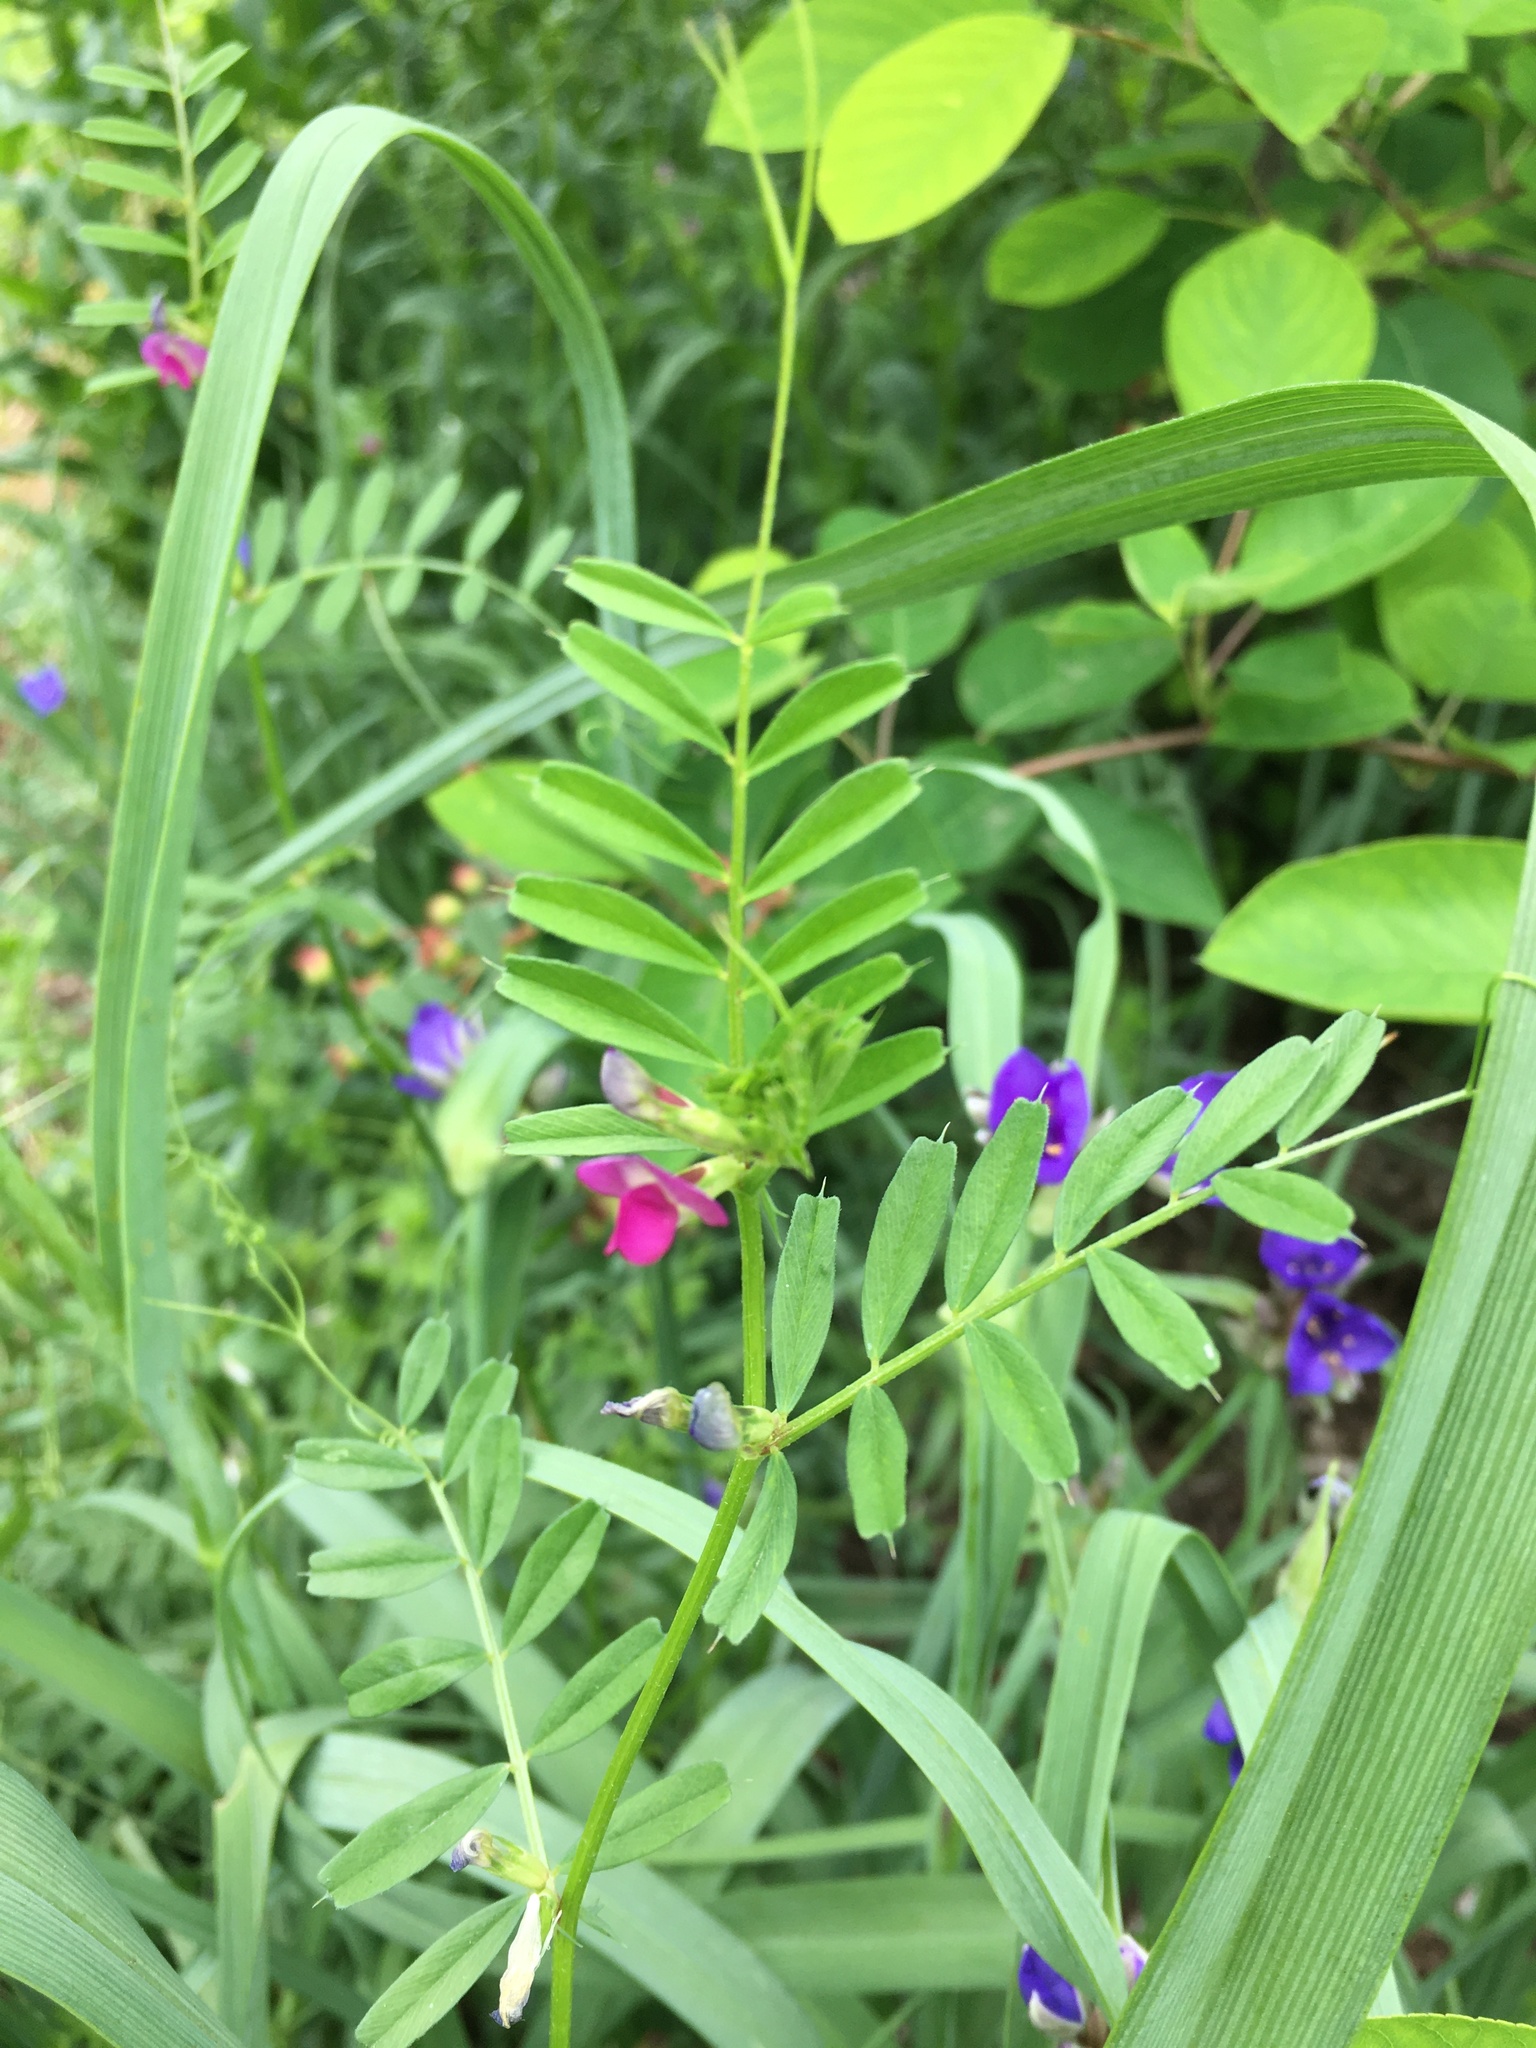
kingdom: Plantae
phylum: Tracheophyta
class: Magnoliopsida
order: Fabales
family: Fabaceae
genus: Vicia
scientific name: Vicia sativa
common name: Garden vetch
